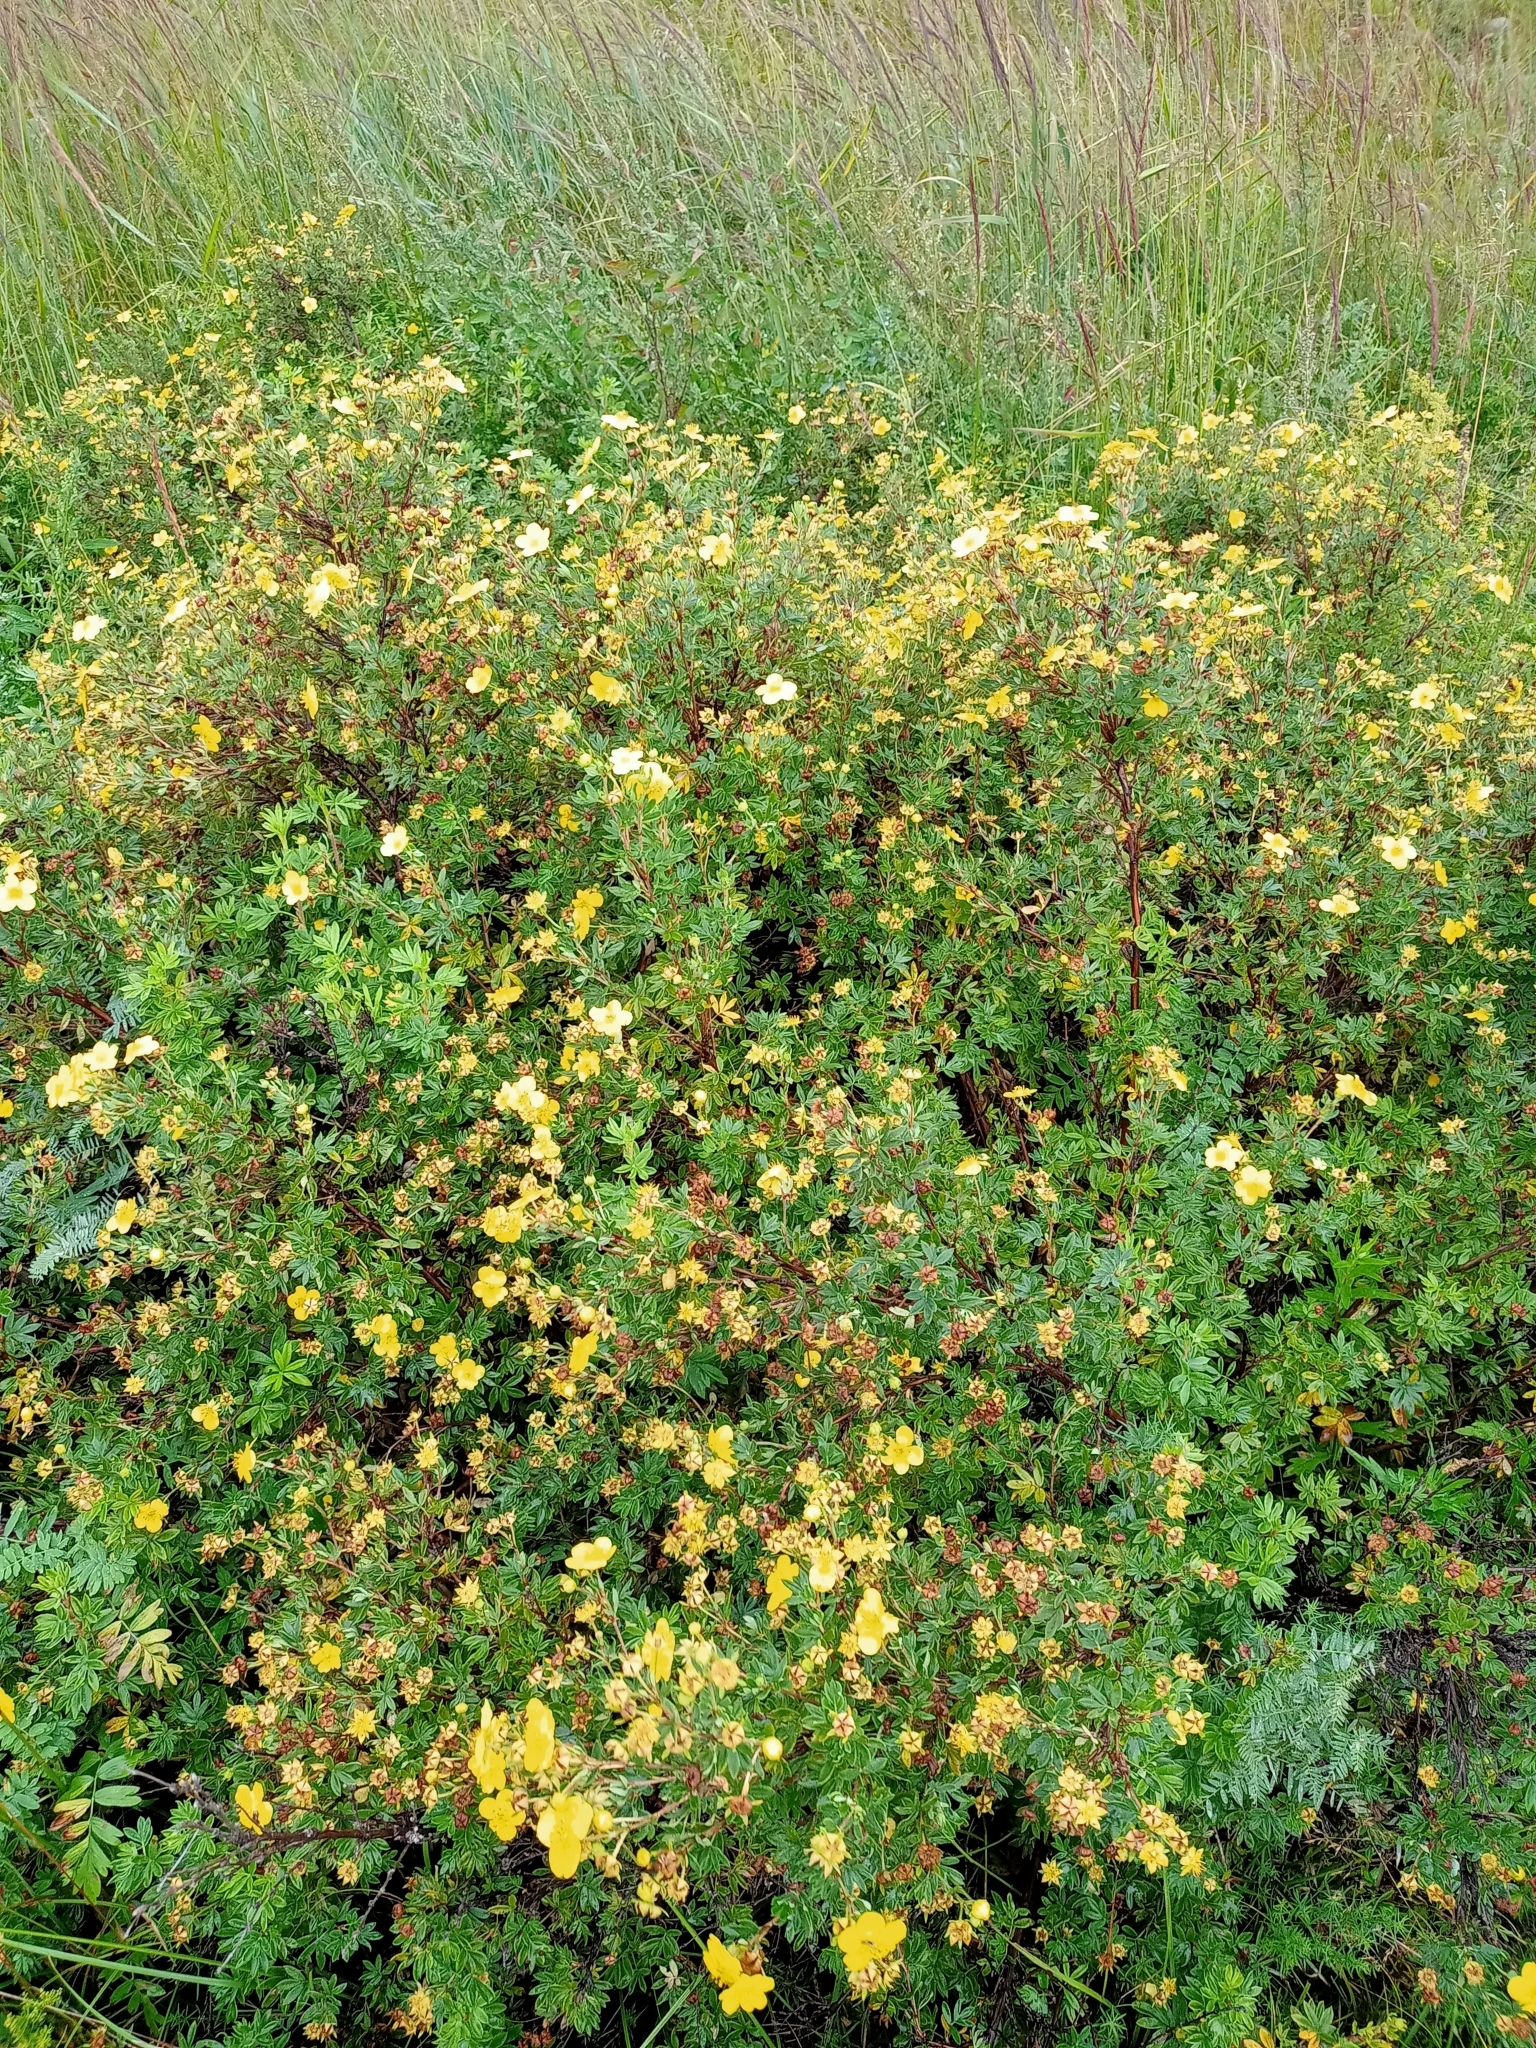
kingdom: Plantae
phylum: Tracheophyta
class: Magnoliopsida
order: Rosales
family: Rosaceae
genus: Dasiphora
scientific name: Dasiphora fruticosa
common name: Shrubby cinquefoil
